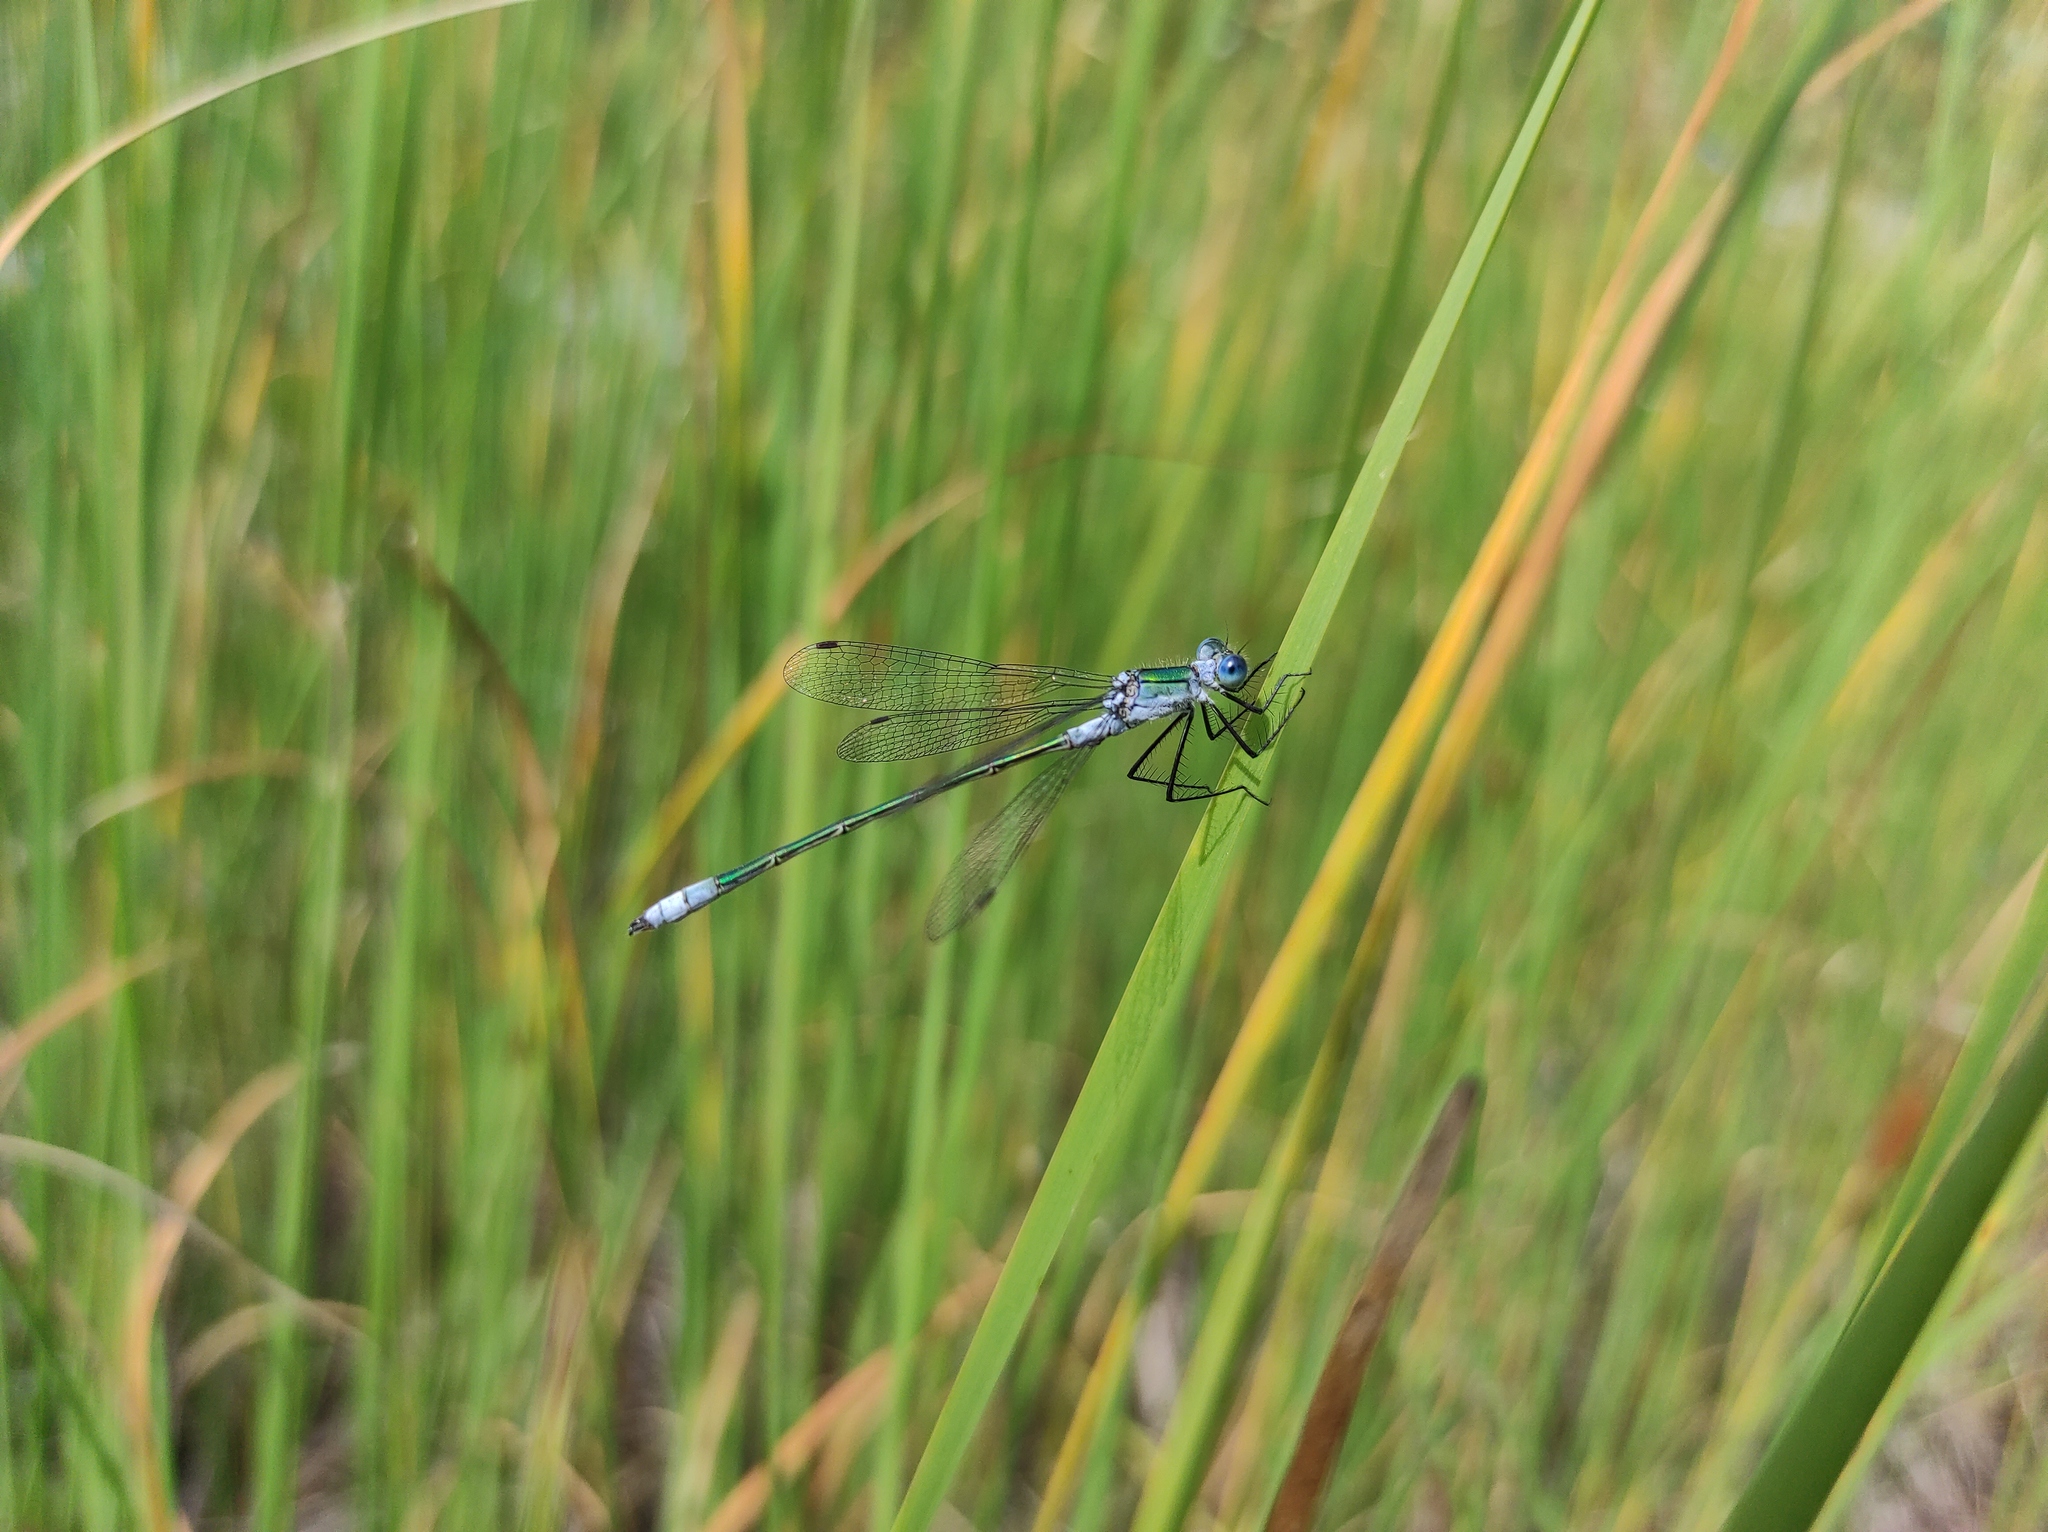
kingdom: Animalia
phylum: Arthropoda
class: Insecta
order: Odonata
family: Lestidae
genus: Lestes
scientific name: Lestes sponsa
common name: Common spreadwing
